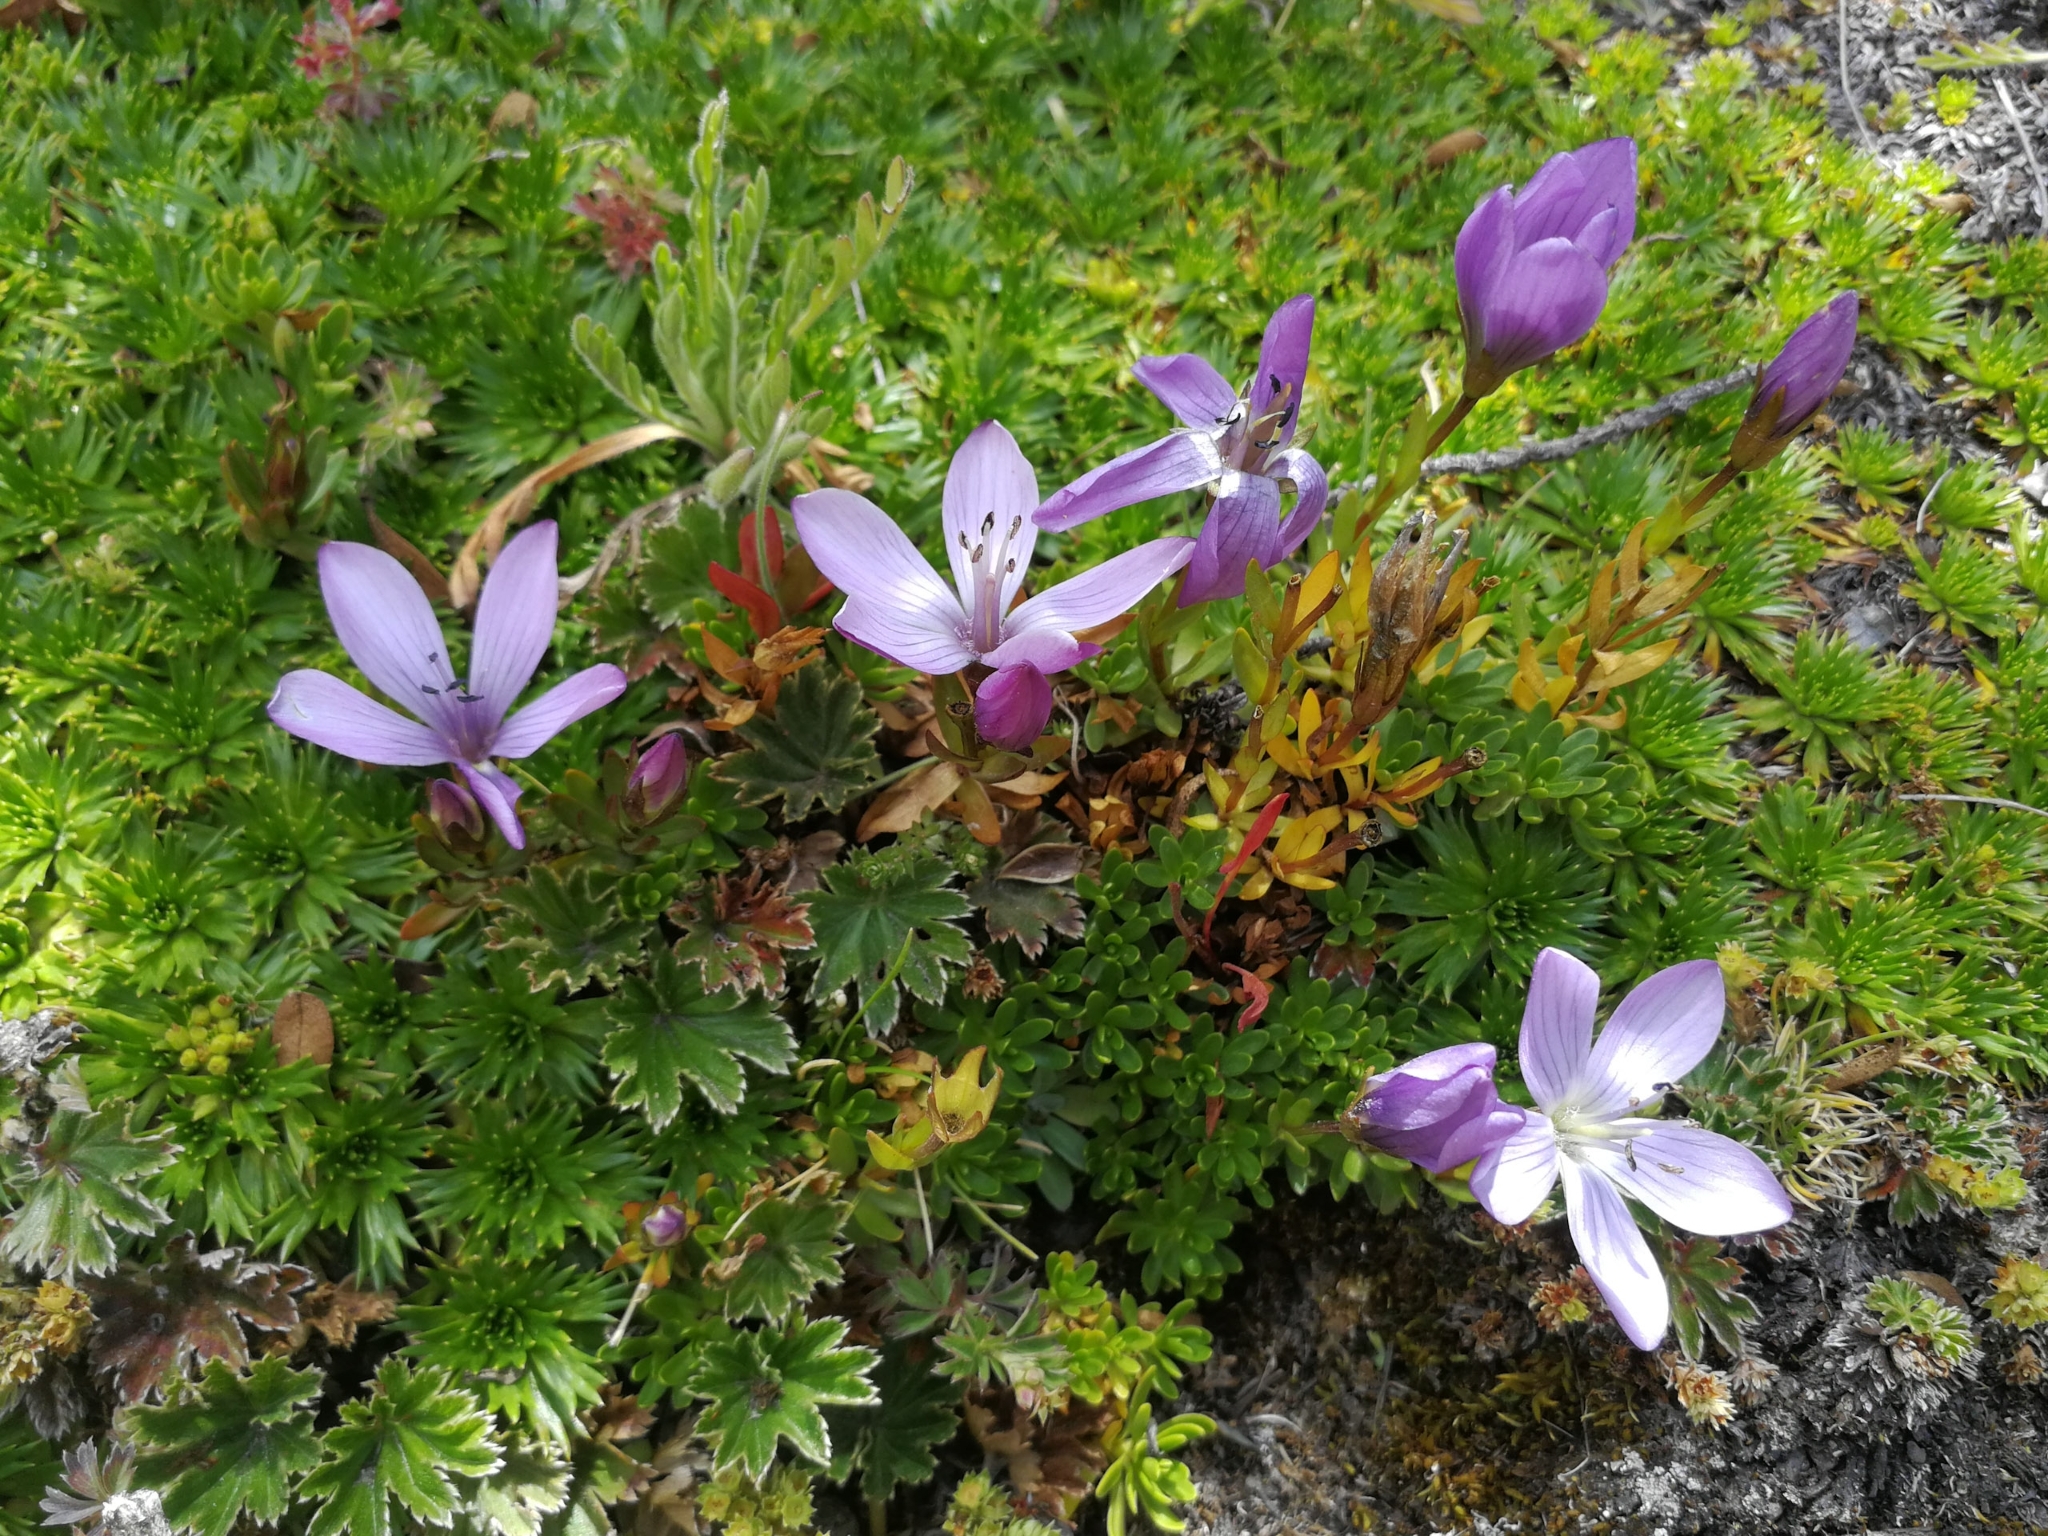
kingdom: Plantae
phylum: Tracheophyta
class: Magnoliopsida
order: Gentianales
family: Gentianaceae
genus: Gentianella
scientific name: Gentianella cerastioides
